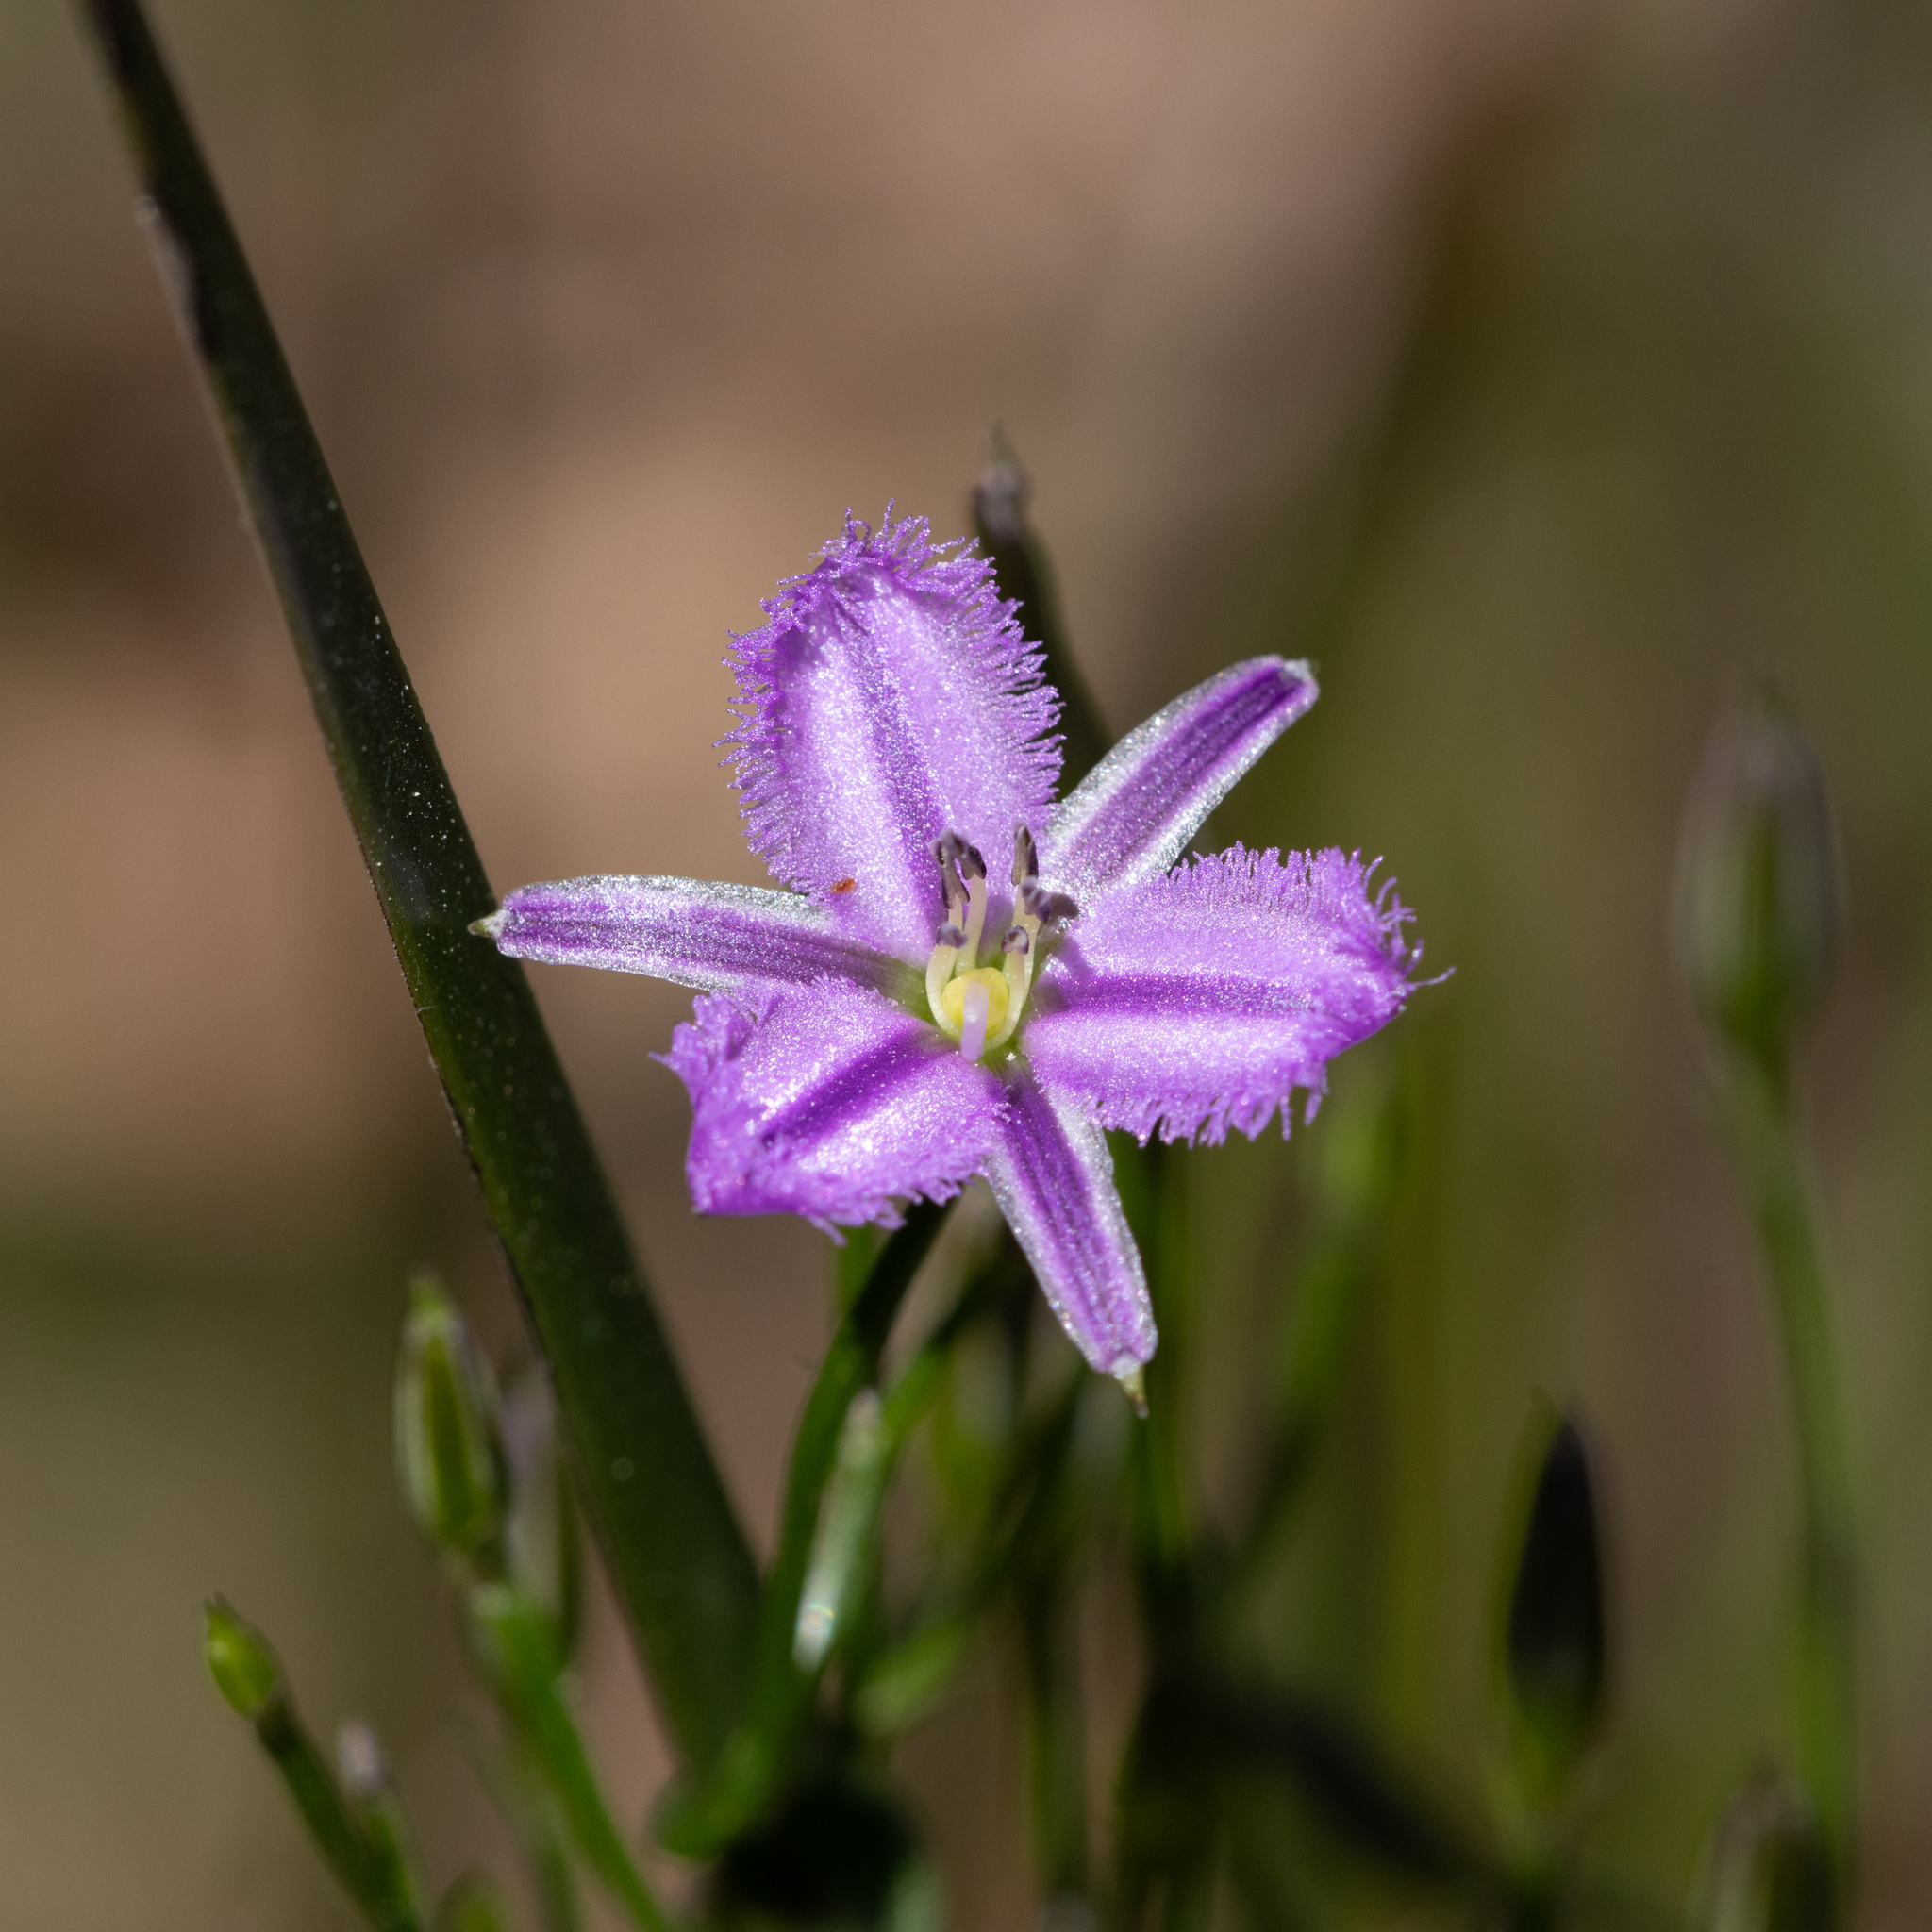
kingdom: Plantae
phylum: Tracheophyta
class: Liliopsida
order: Asparagales
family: Asparagaceae
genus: Thysanotus
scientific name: Thysanotus patersonii
